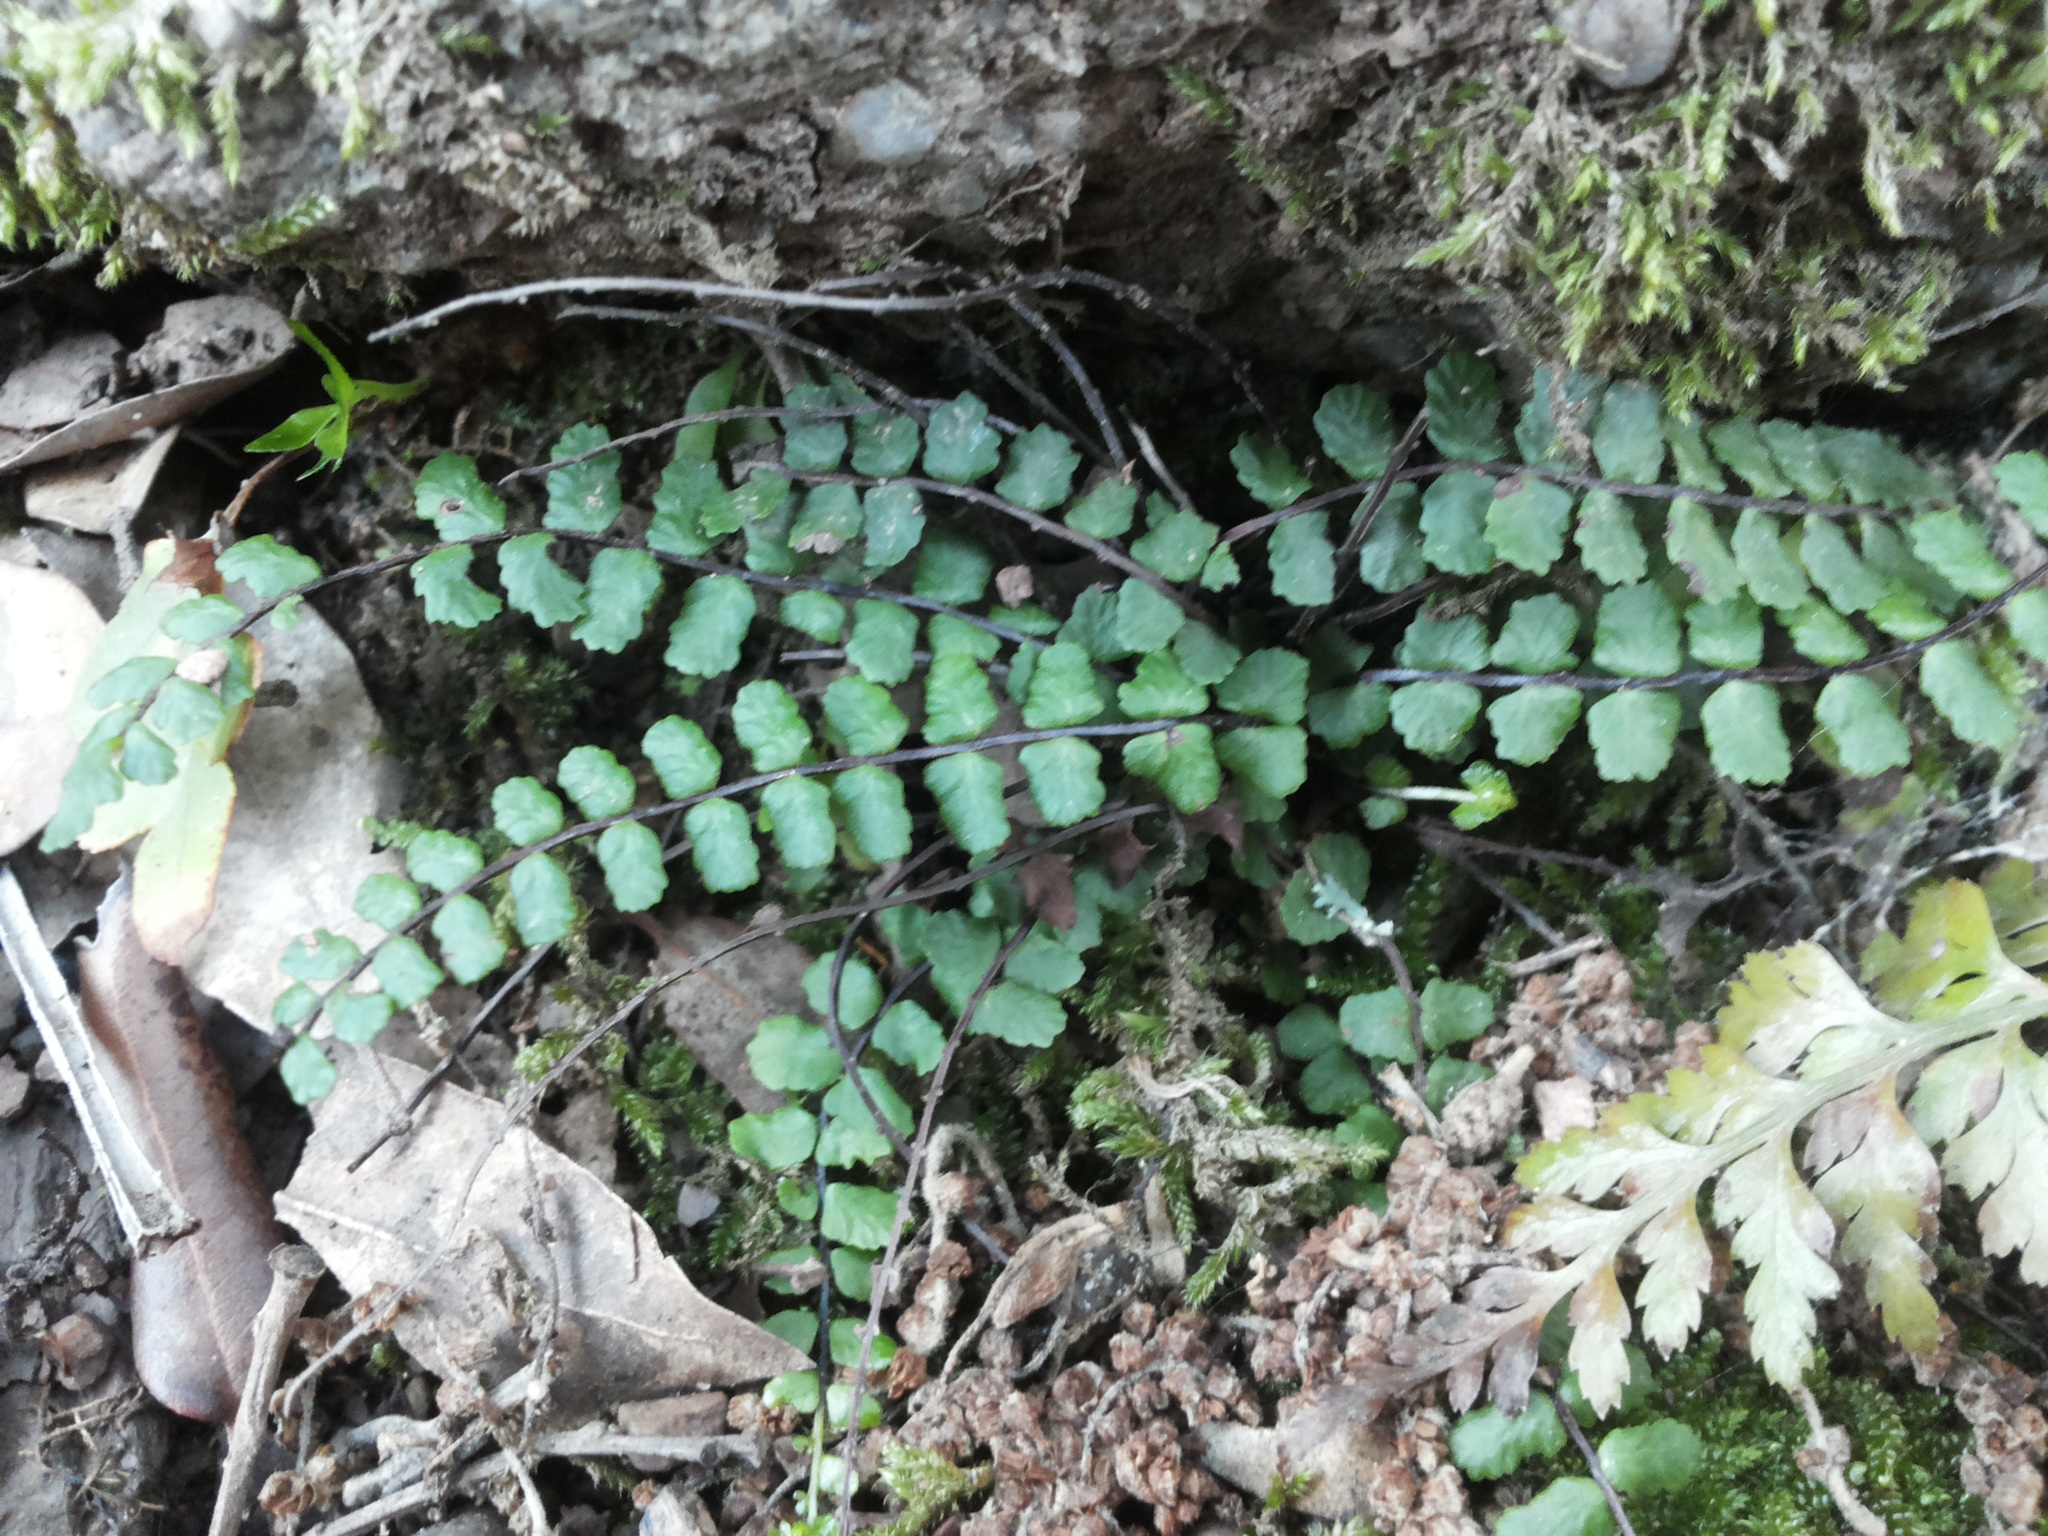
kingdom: Plantae
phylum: Tracheophyta
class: Polypodiopsida
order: Polypodiales
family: Aspleniaceae
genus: Asplenium
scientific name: Asplenium trichomanes
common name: Maidenhair spleenwort
